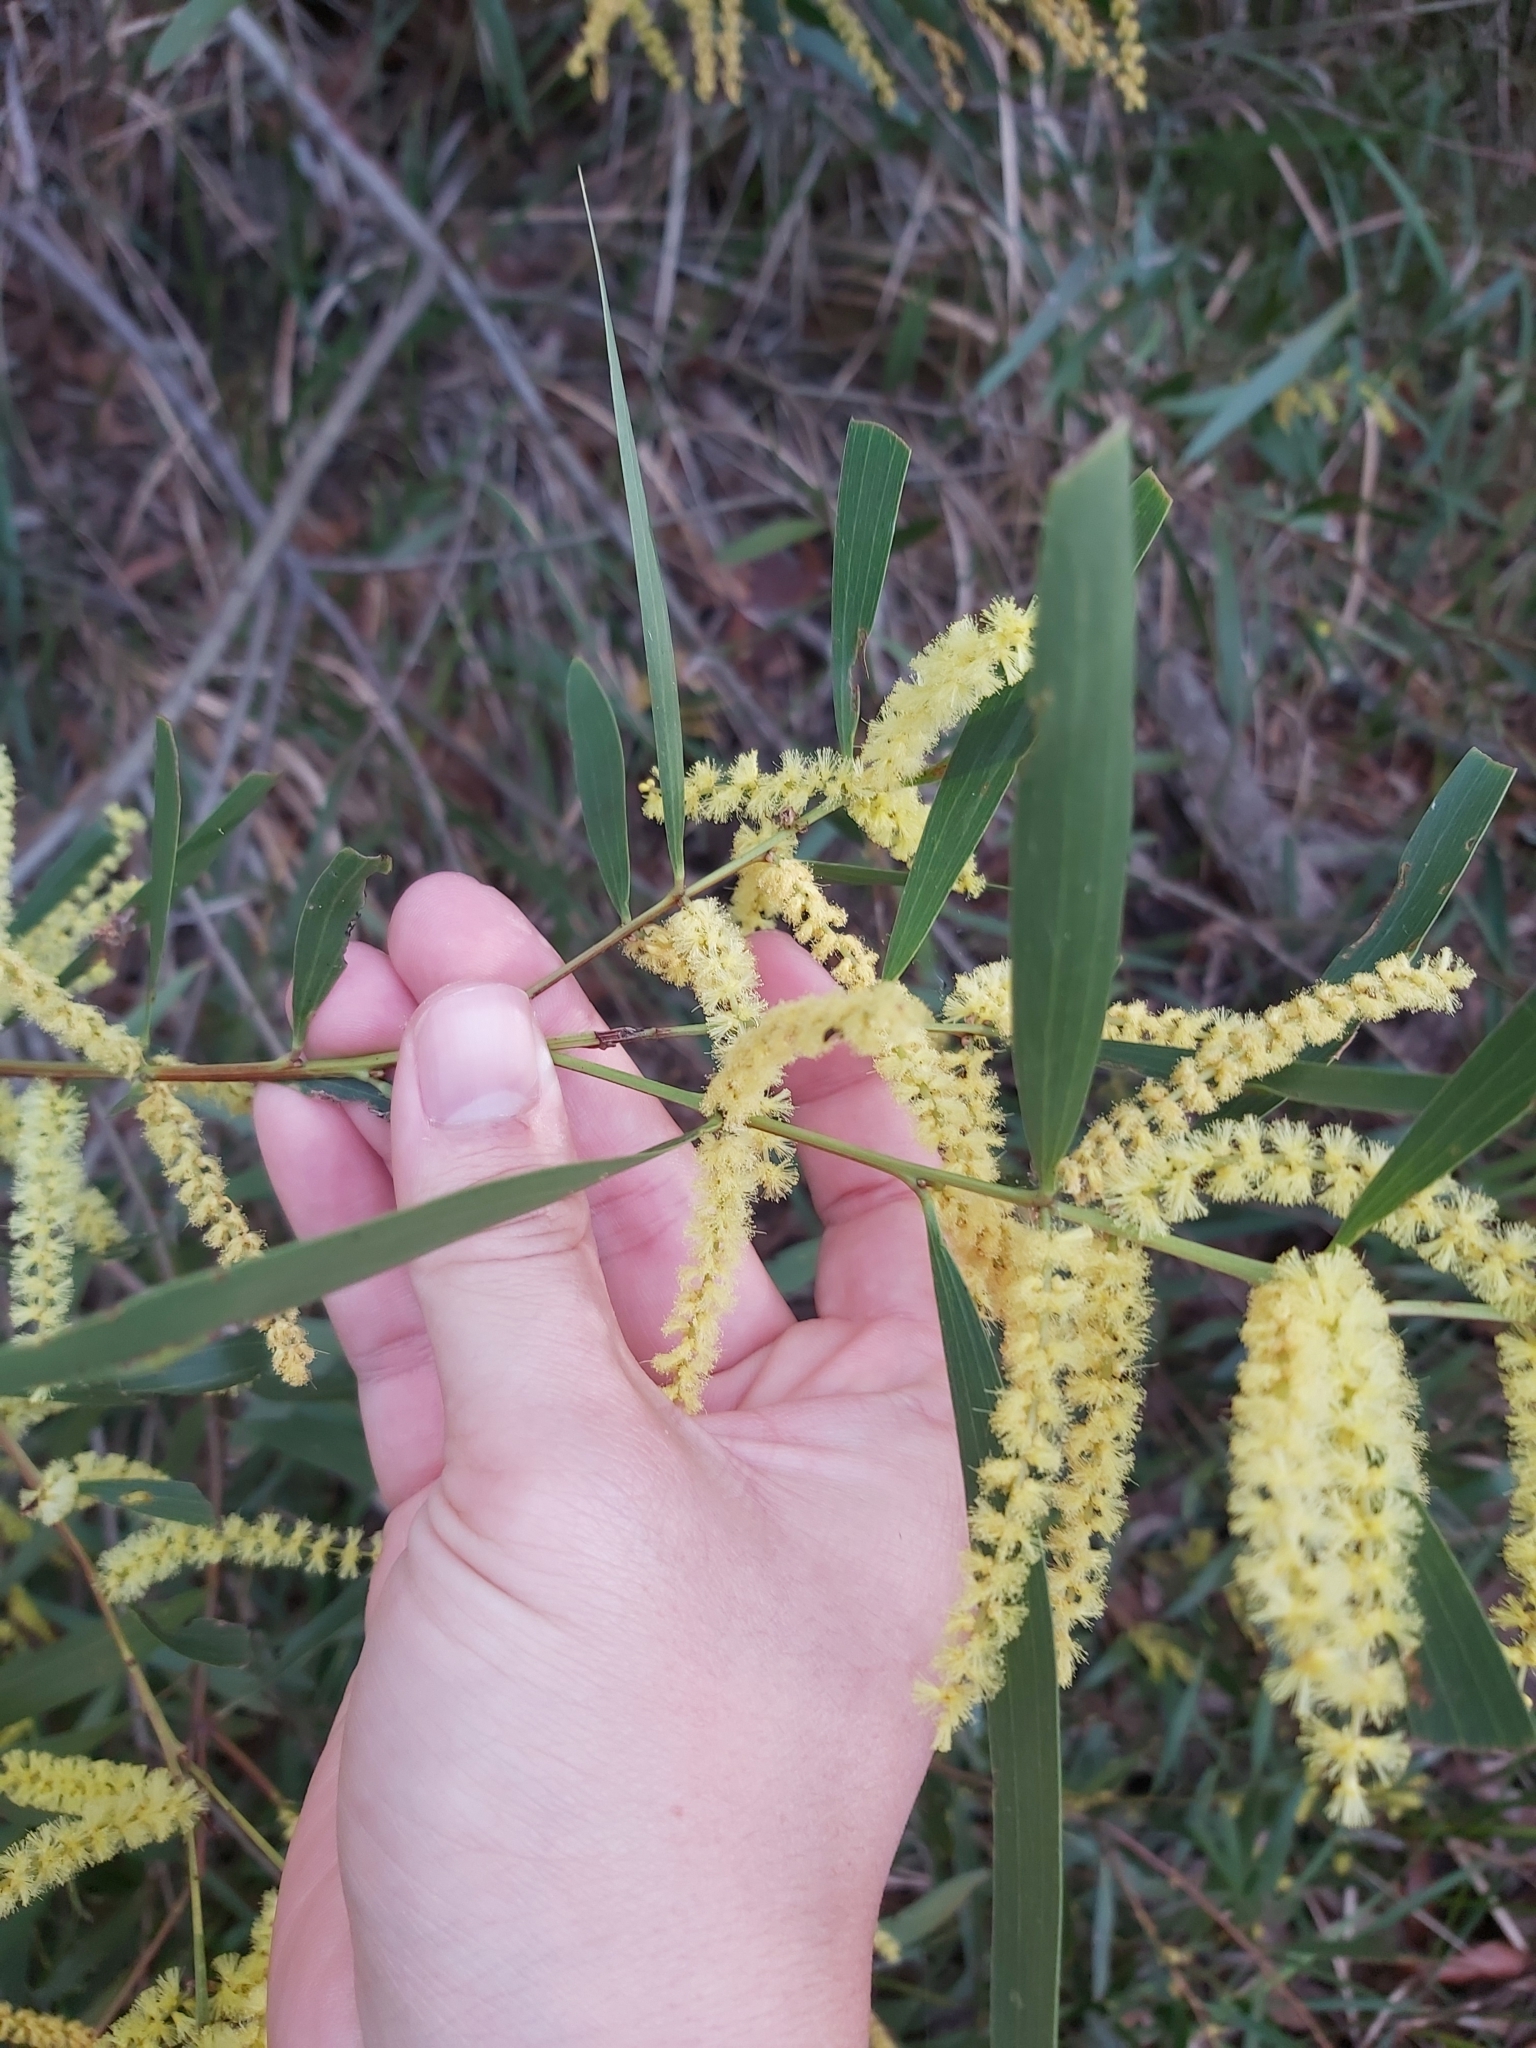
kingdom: Plantae
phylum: Tracheophyta
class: Magnoliopsida
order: Fabales
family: Fabaceae
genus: Acacia
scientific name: Acacia longifolia
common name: Sydney golden wattle
